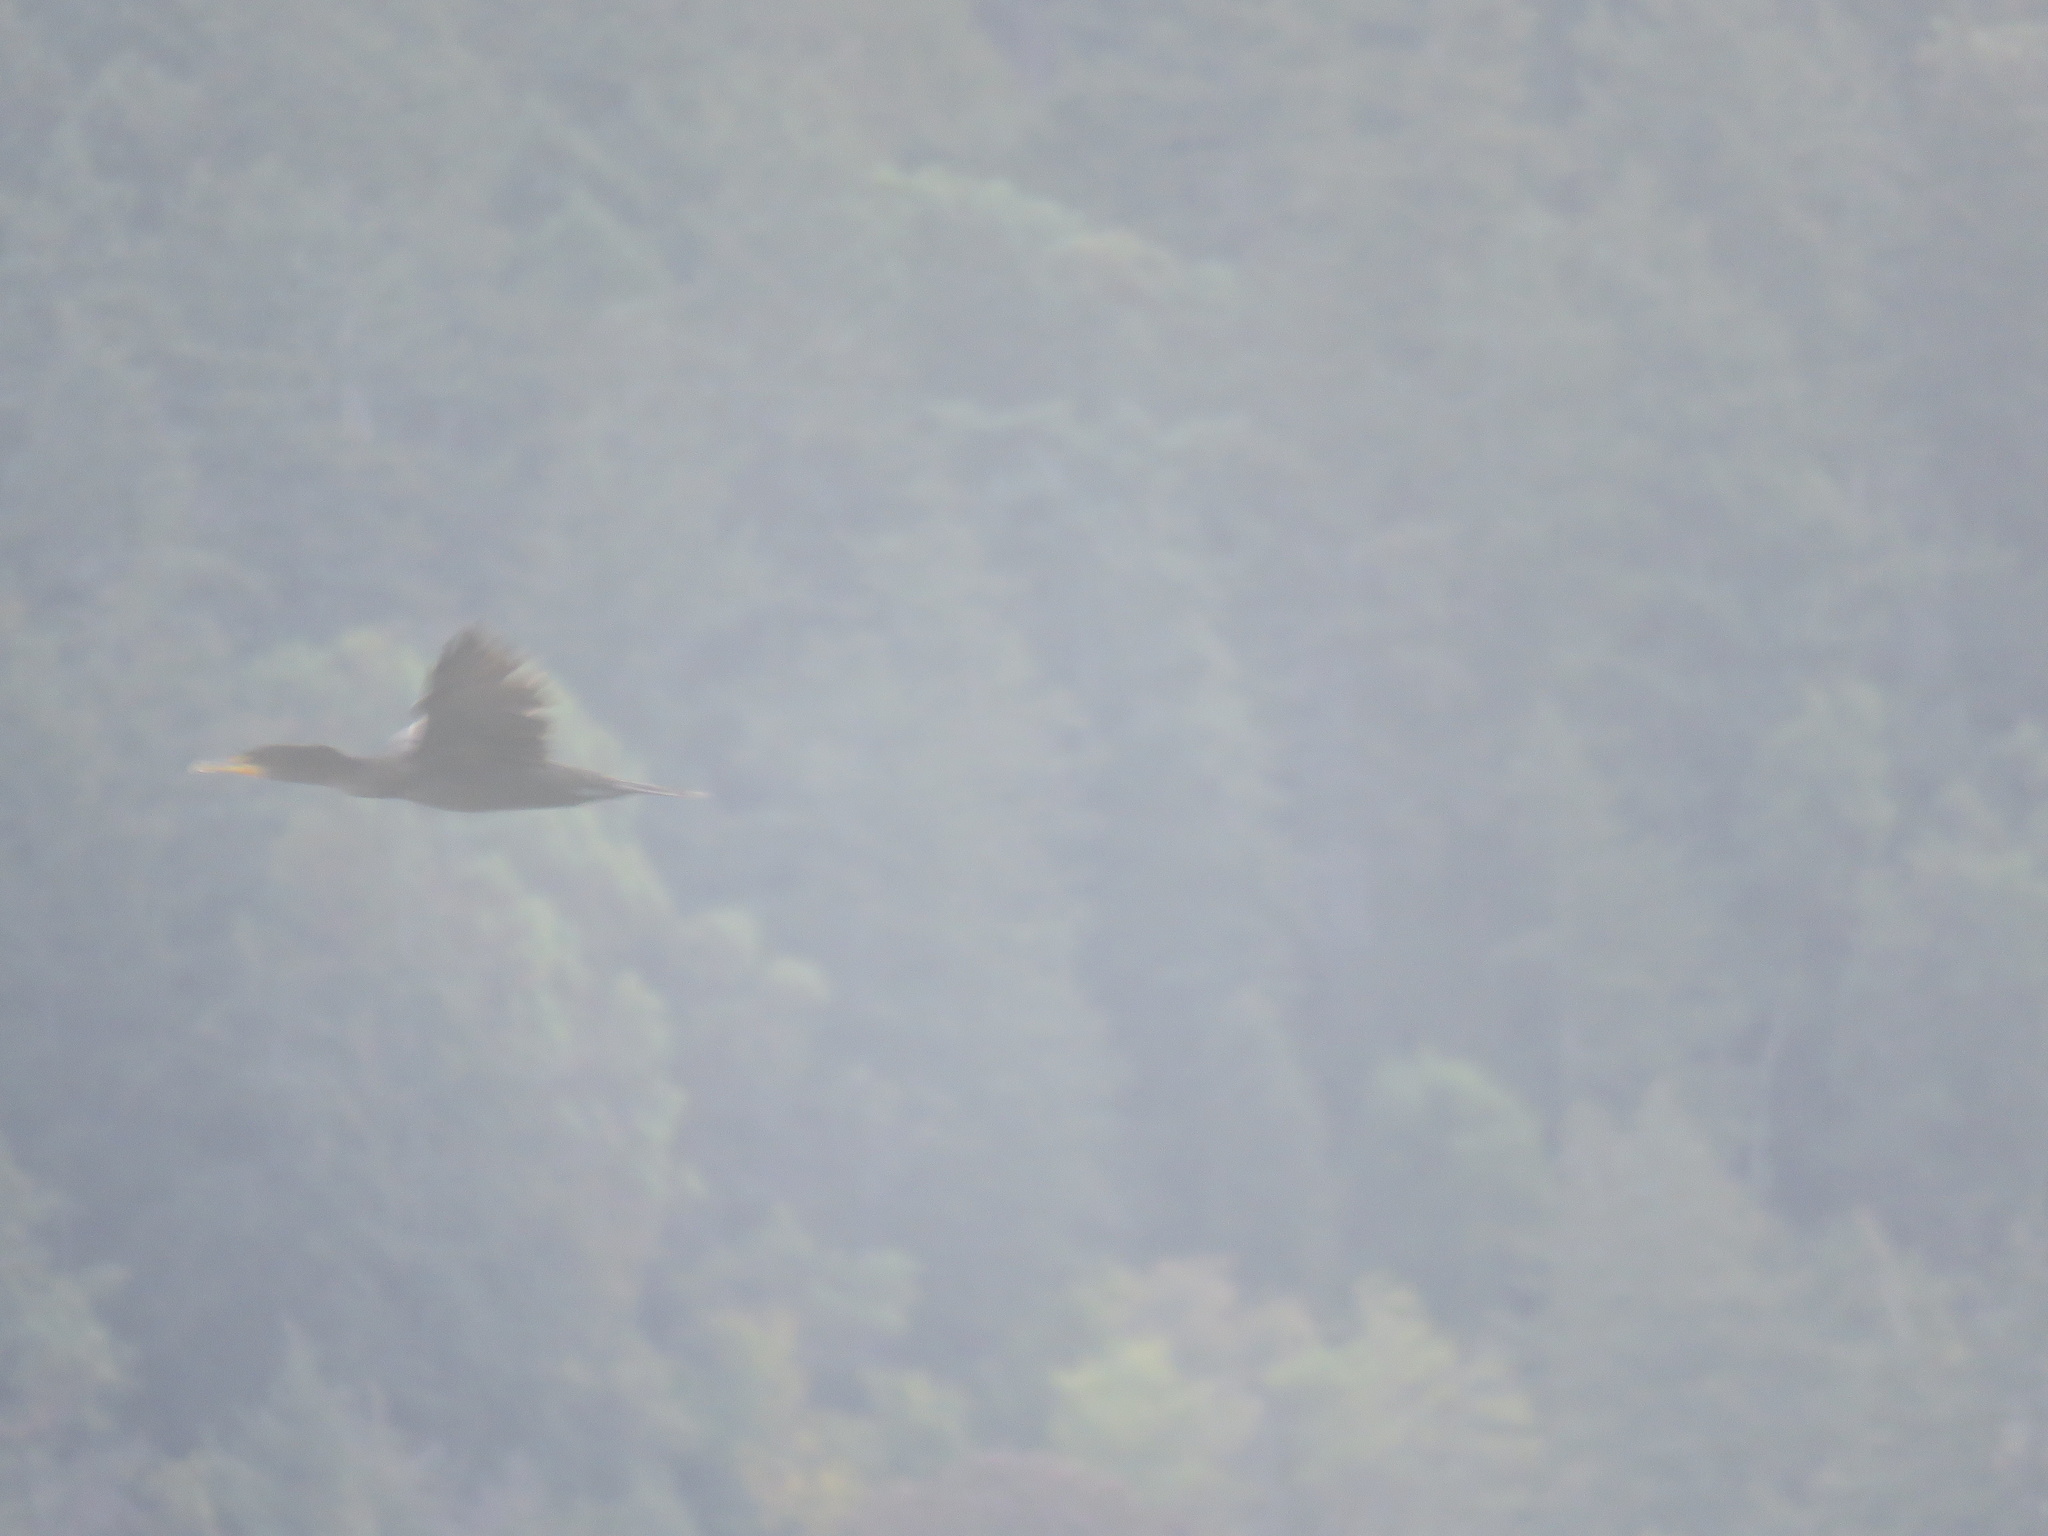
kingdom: Animalia
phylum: Chordata
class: Aves
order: Suliformes
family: Phalacrocoracidae
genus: Phalacrocorax
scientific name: Phalacrocorax auritus
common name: Double-crested cormorant
